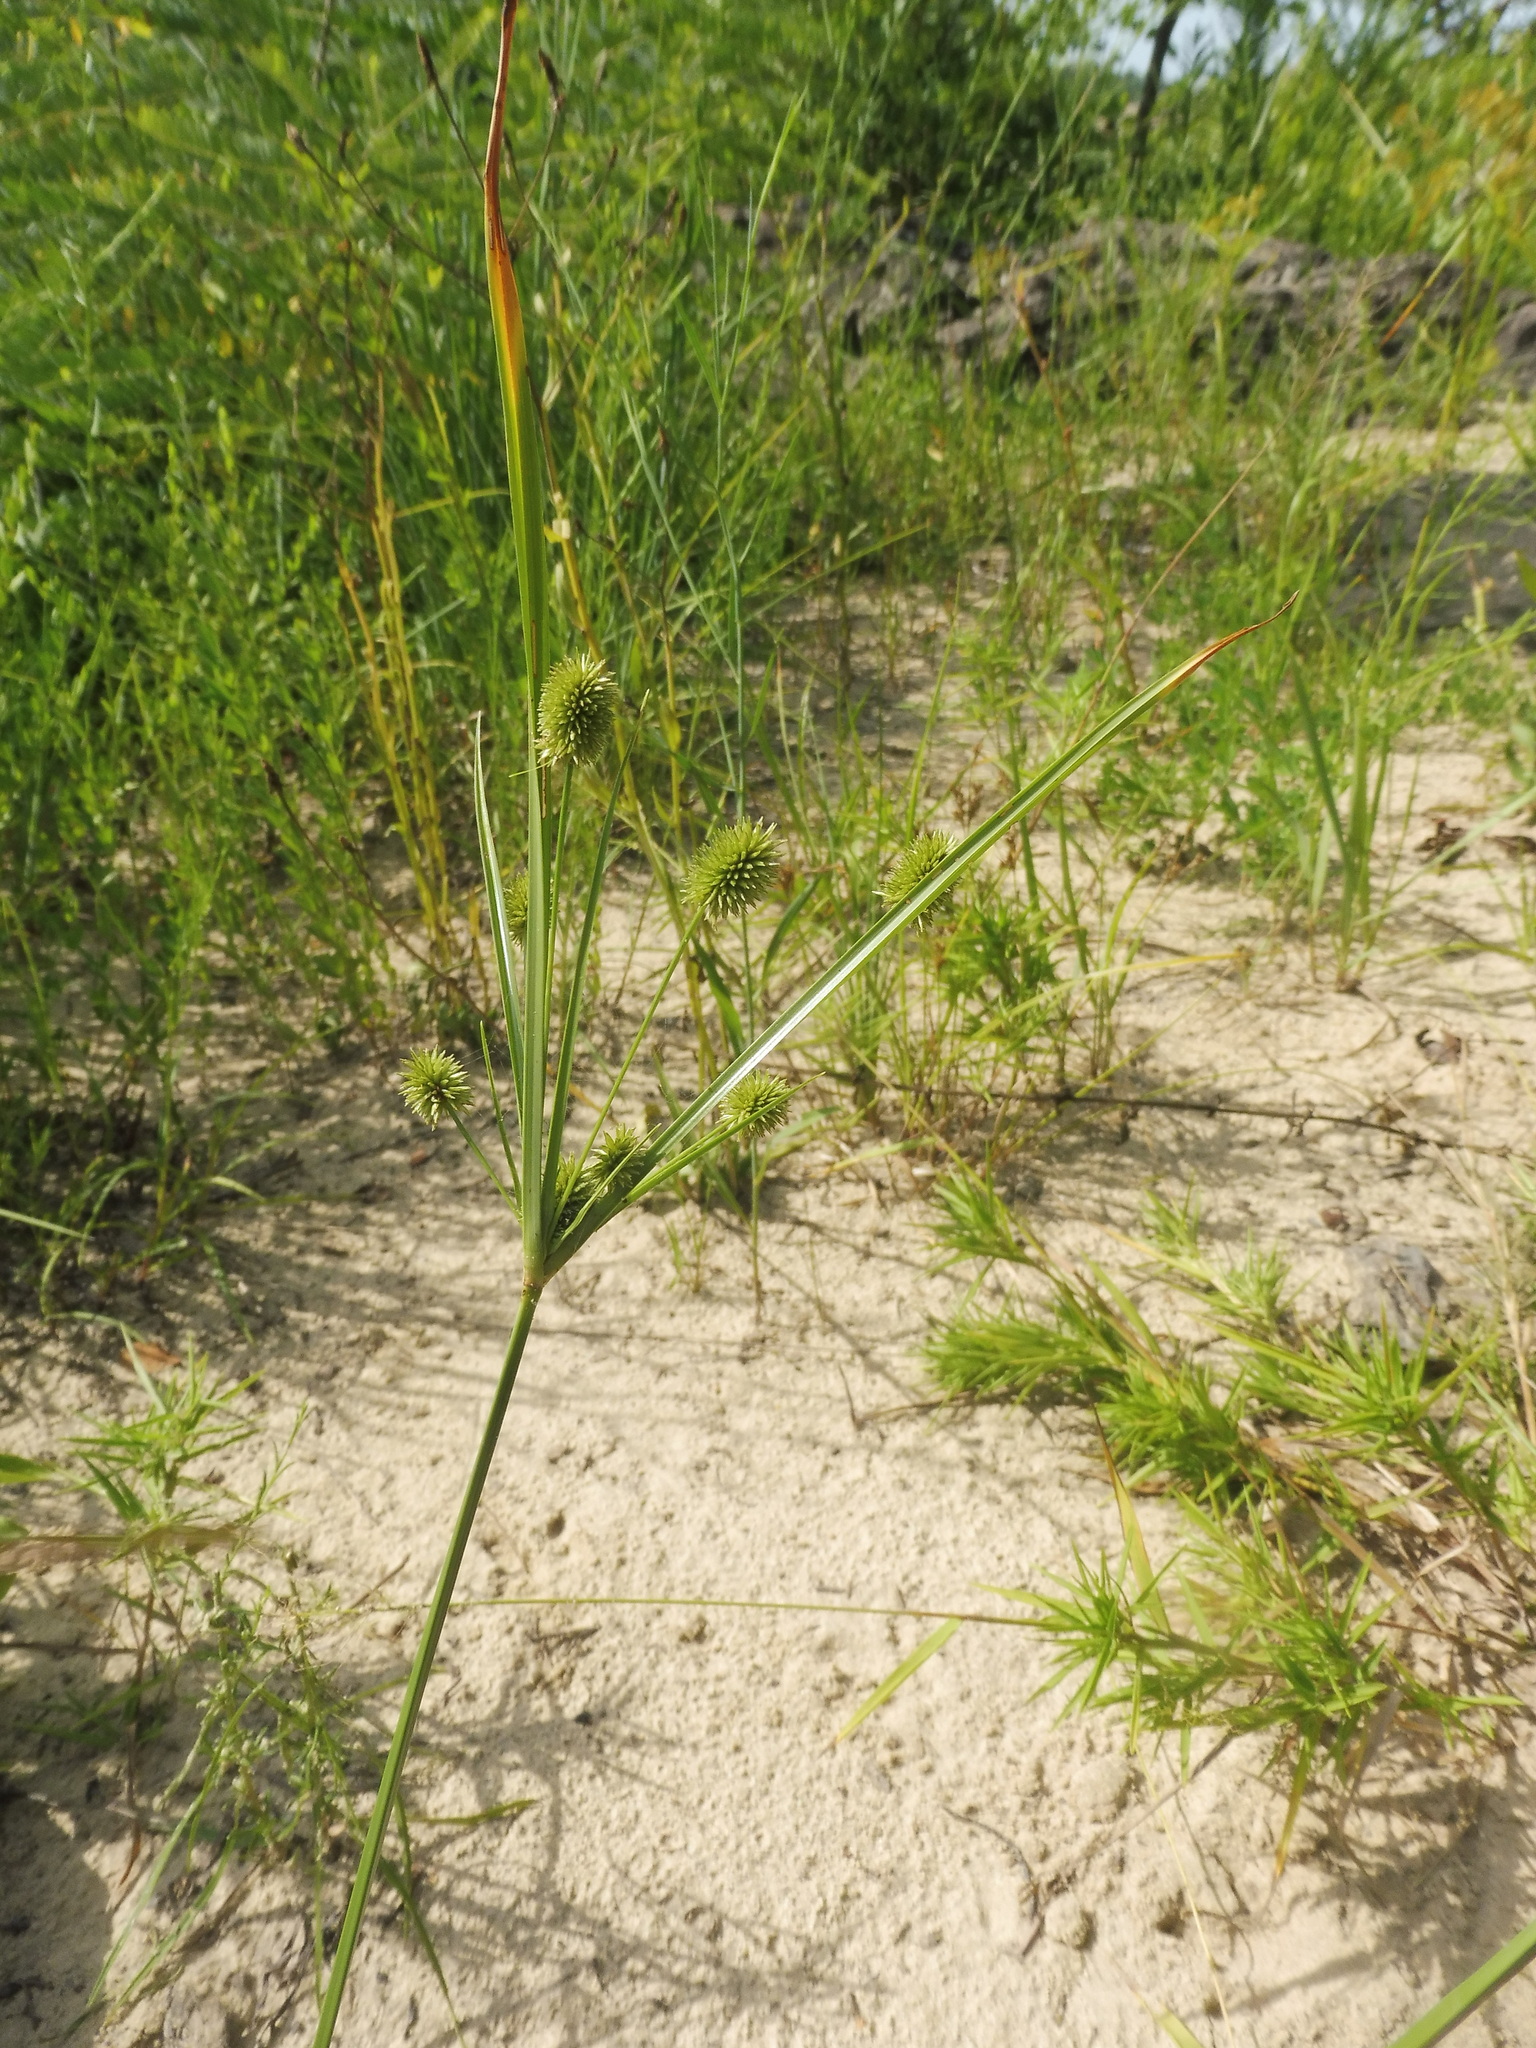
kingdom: Plantae
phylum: Tracheophyta
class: Liliopsida
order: Poales
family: Cyperaceae
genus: Cyperus
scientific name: Cyperus retrorsus
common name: Pinebarren flat sedge
